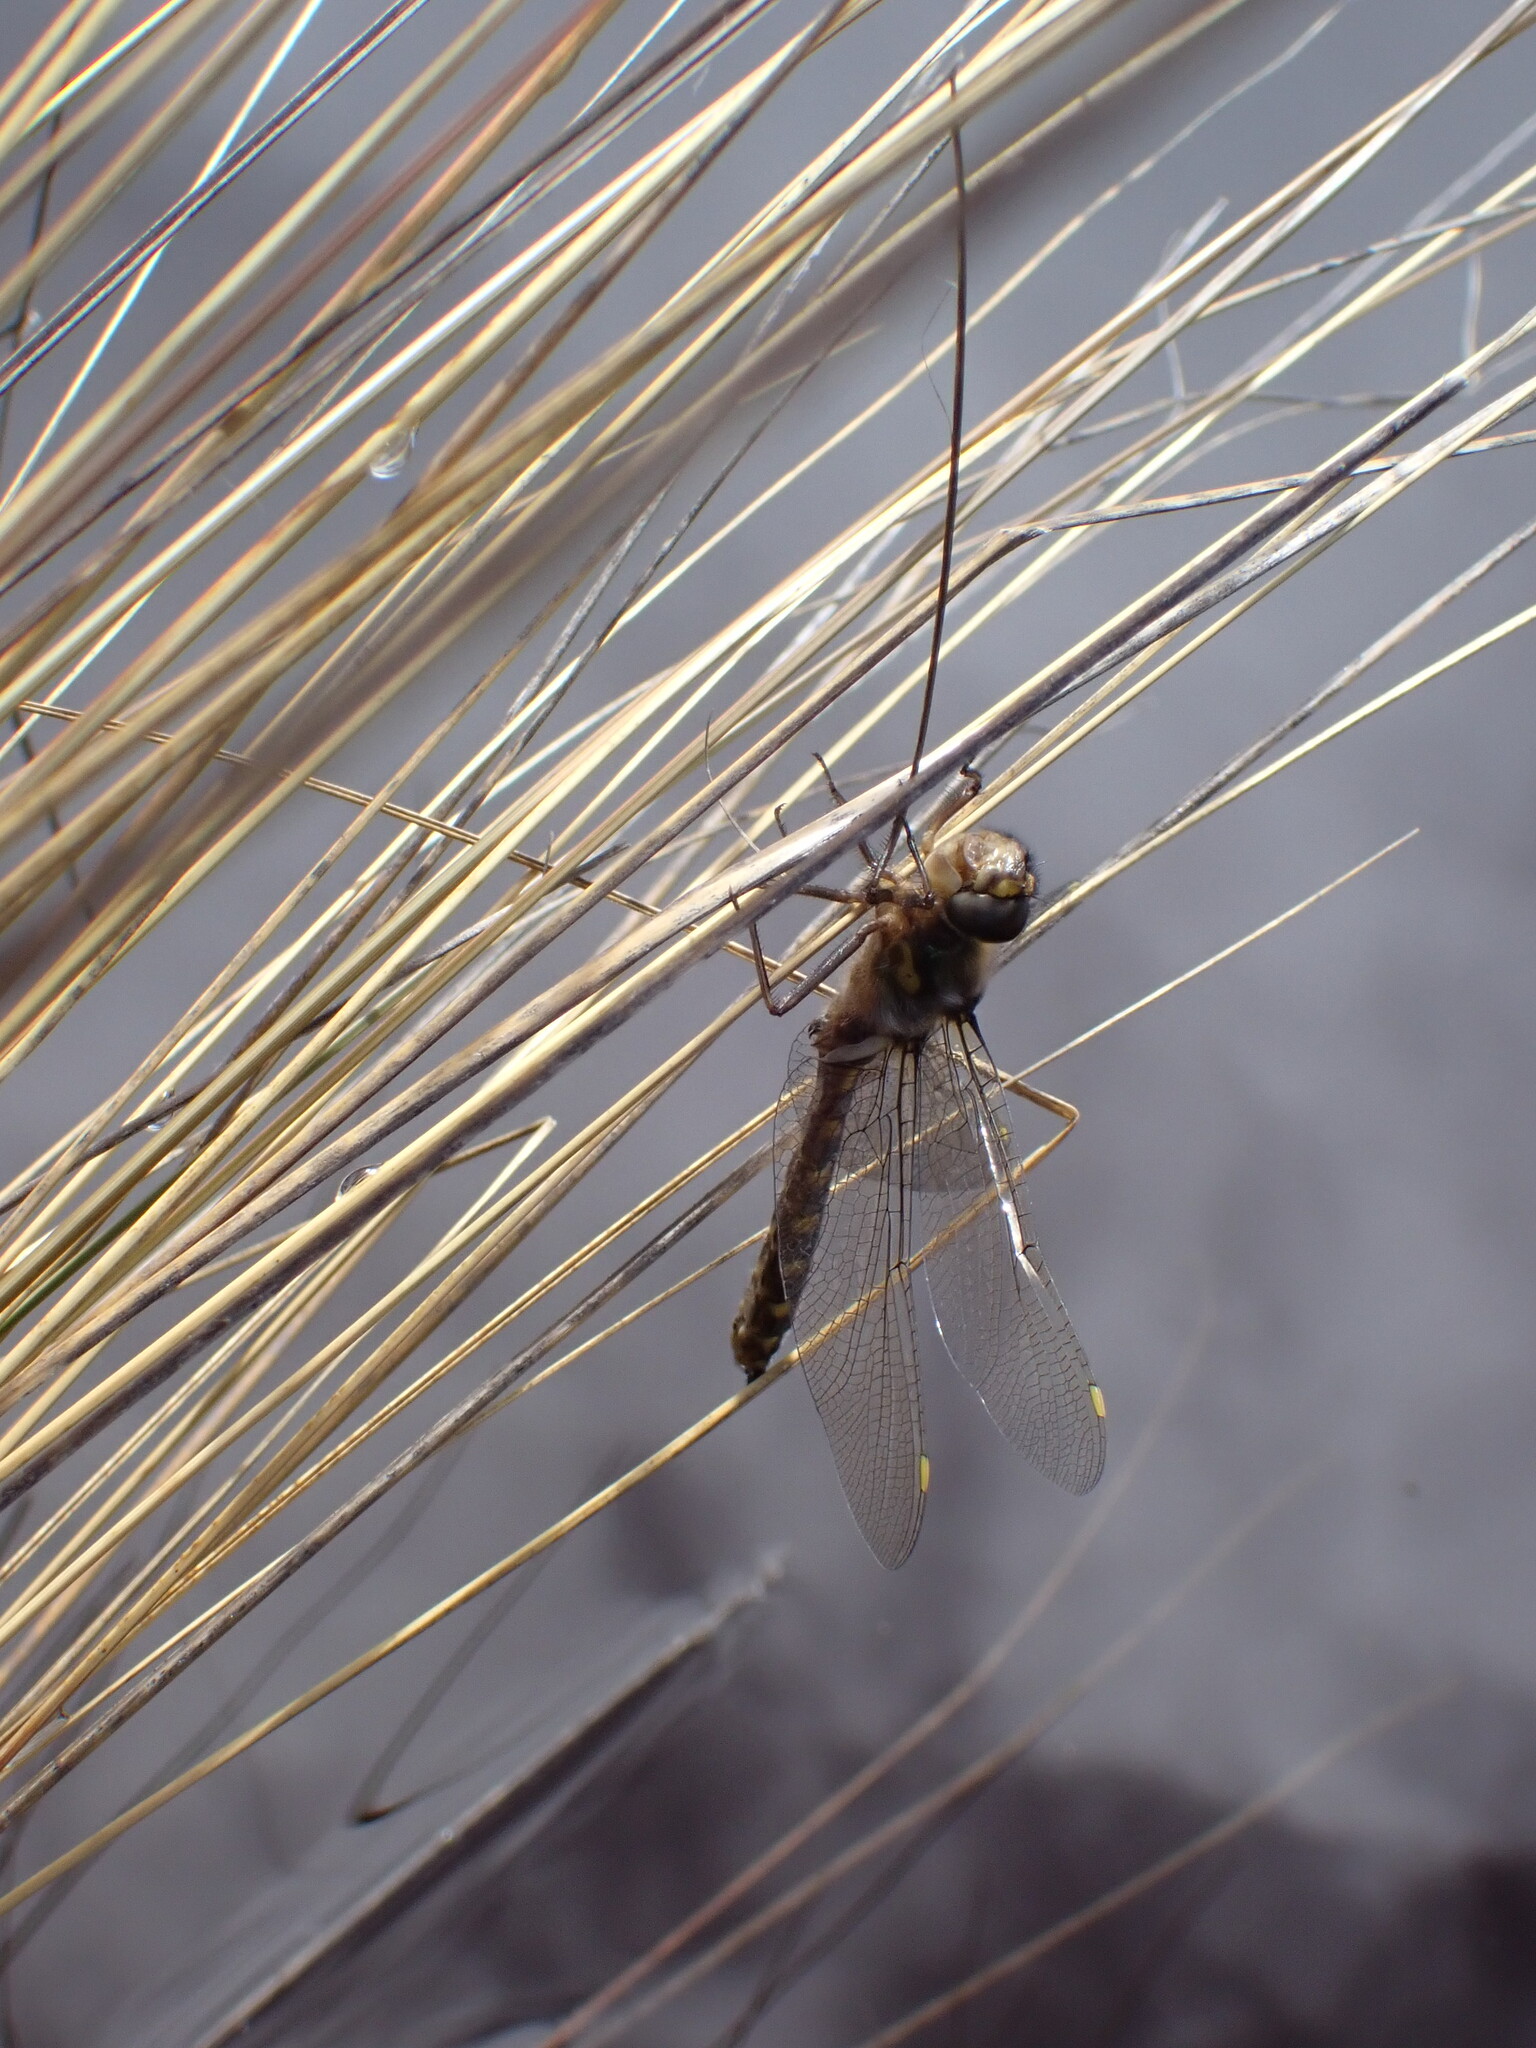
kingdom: Animalia
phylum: Arthropoda
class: Insecta
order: Odonata
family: Corduliidae
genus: Procordulia
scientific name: Procordulia grayi
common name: Yellow spotted dragonfly
